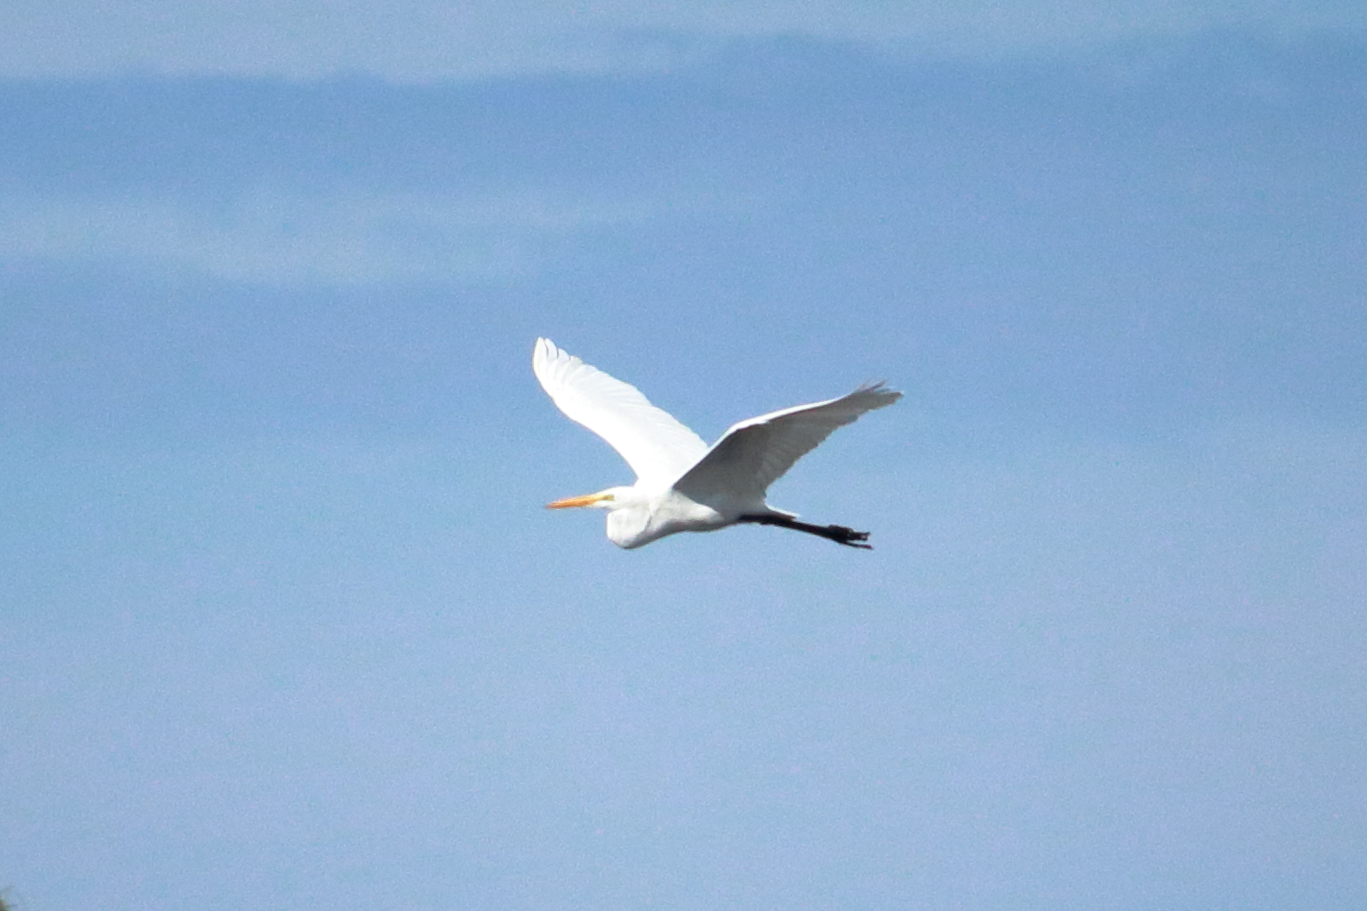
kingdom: Animalia
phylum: Chordata
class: Aves
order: Pelecaniformes
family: Ardeidae
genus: Ardea
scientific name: Ardea alba
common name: Great egret
